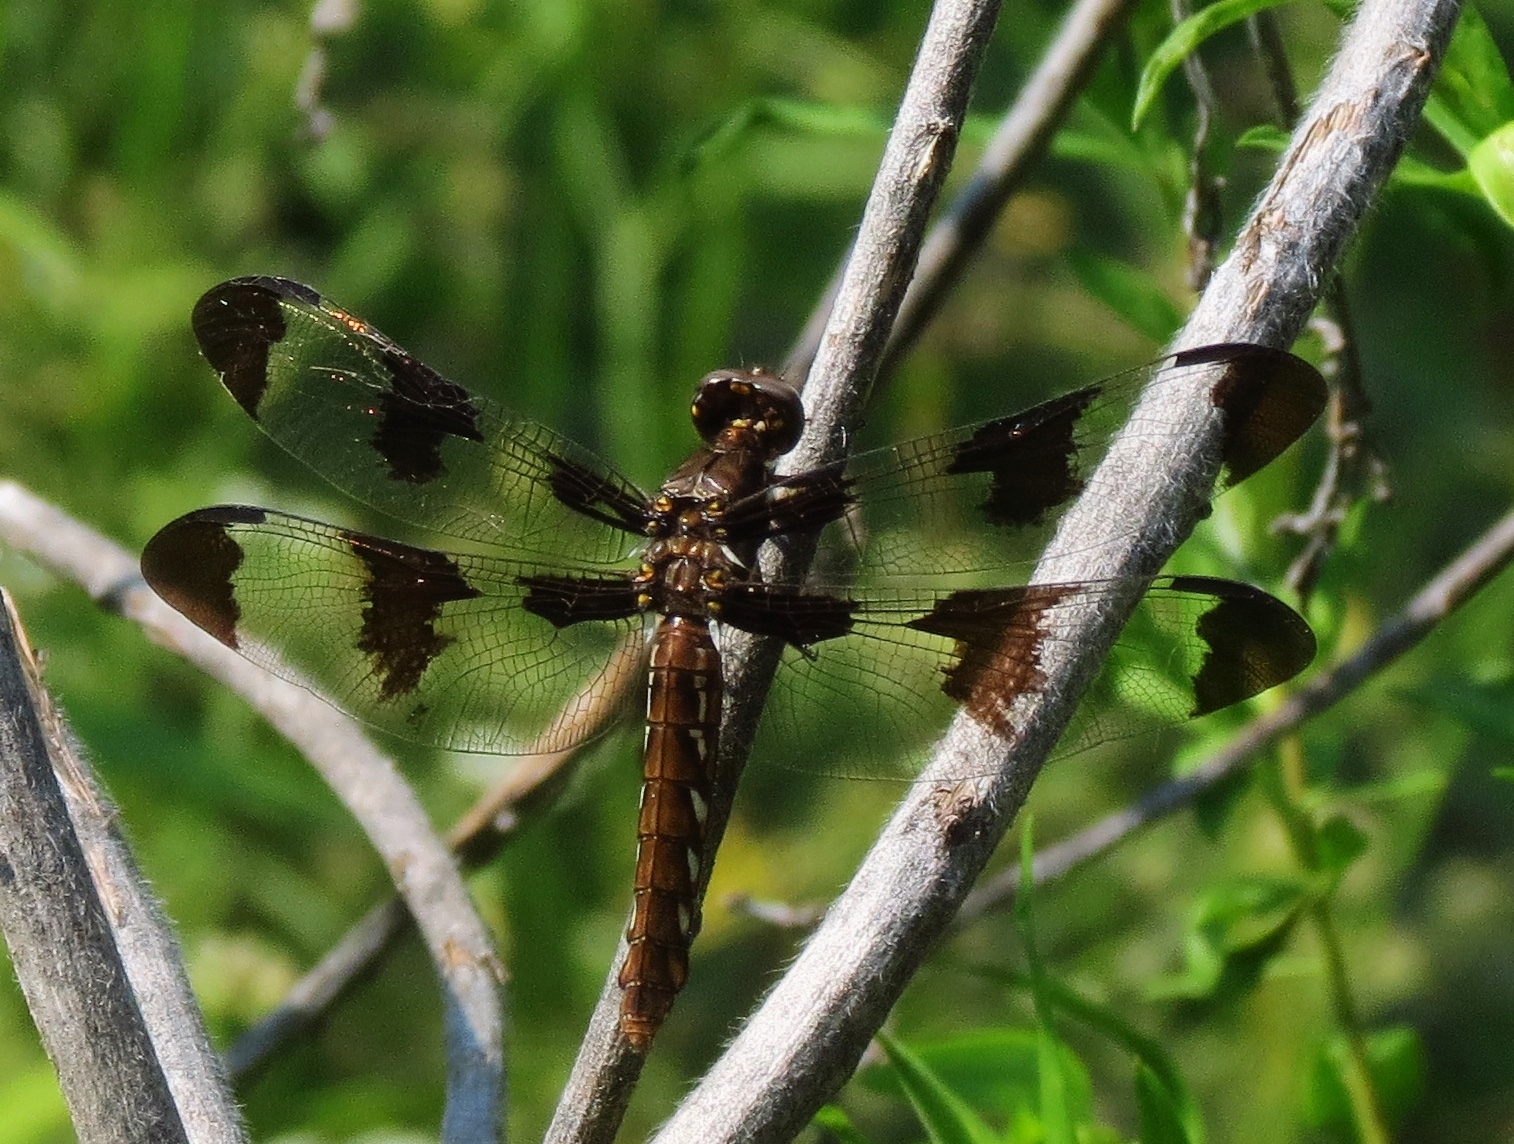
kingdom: Animalia
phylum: Arthropoda
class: Insecta
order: Odonata
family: Libellulidae
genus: Plathemis
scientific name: Plathemis lydia
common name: Common whitetail
